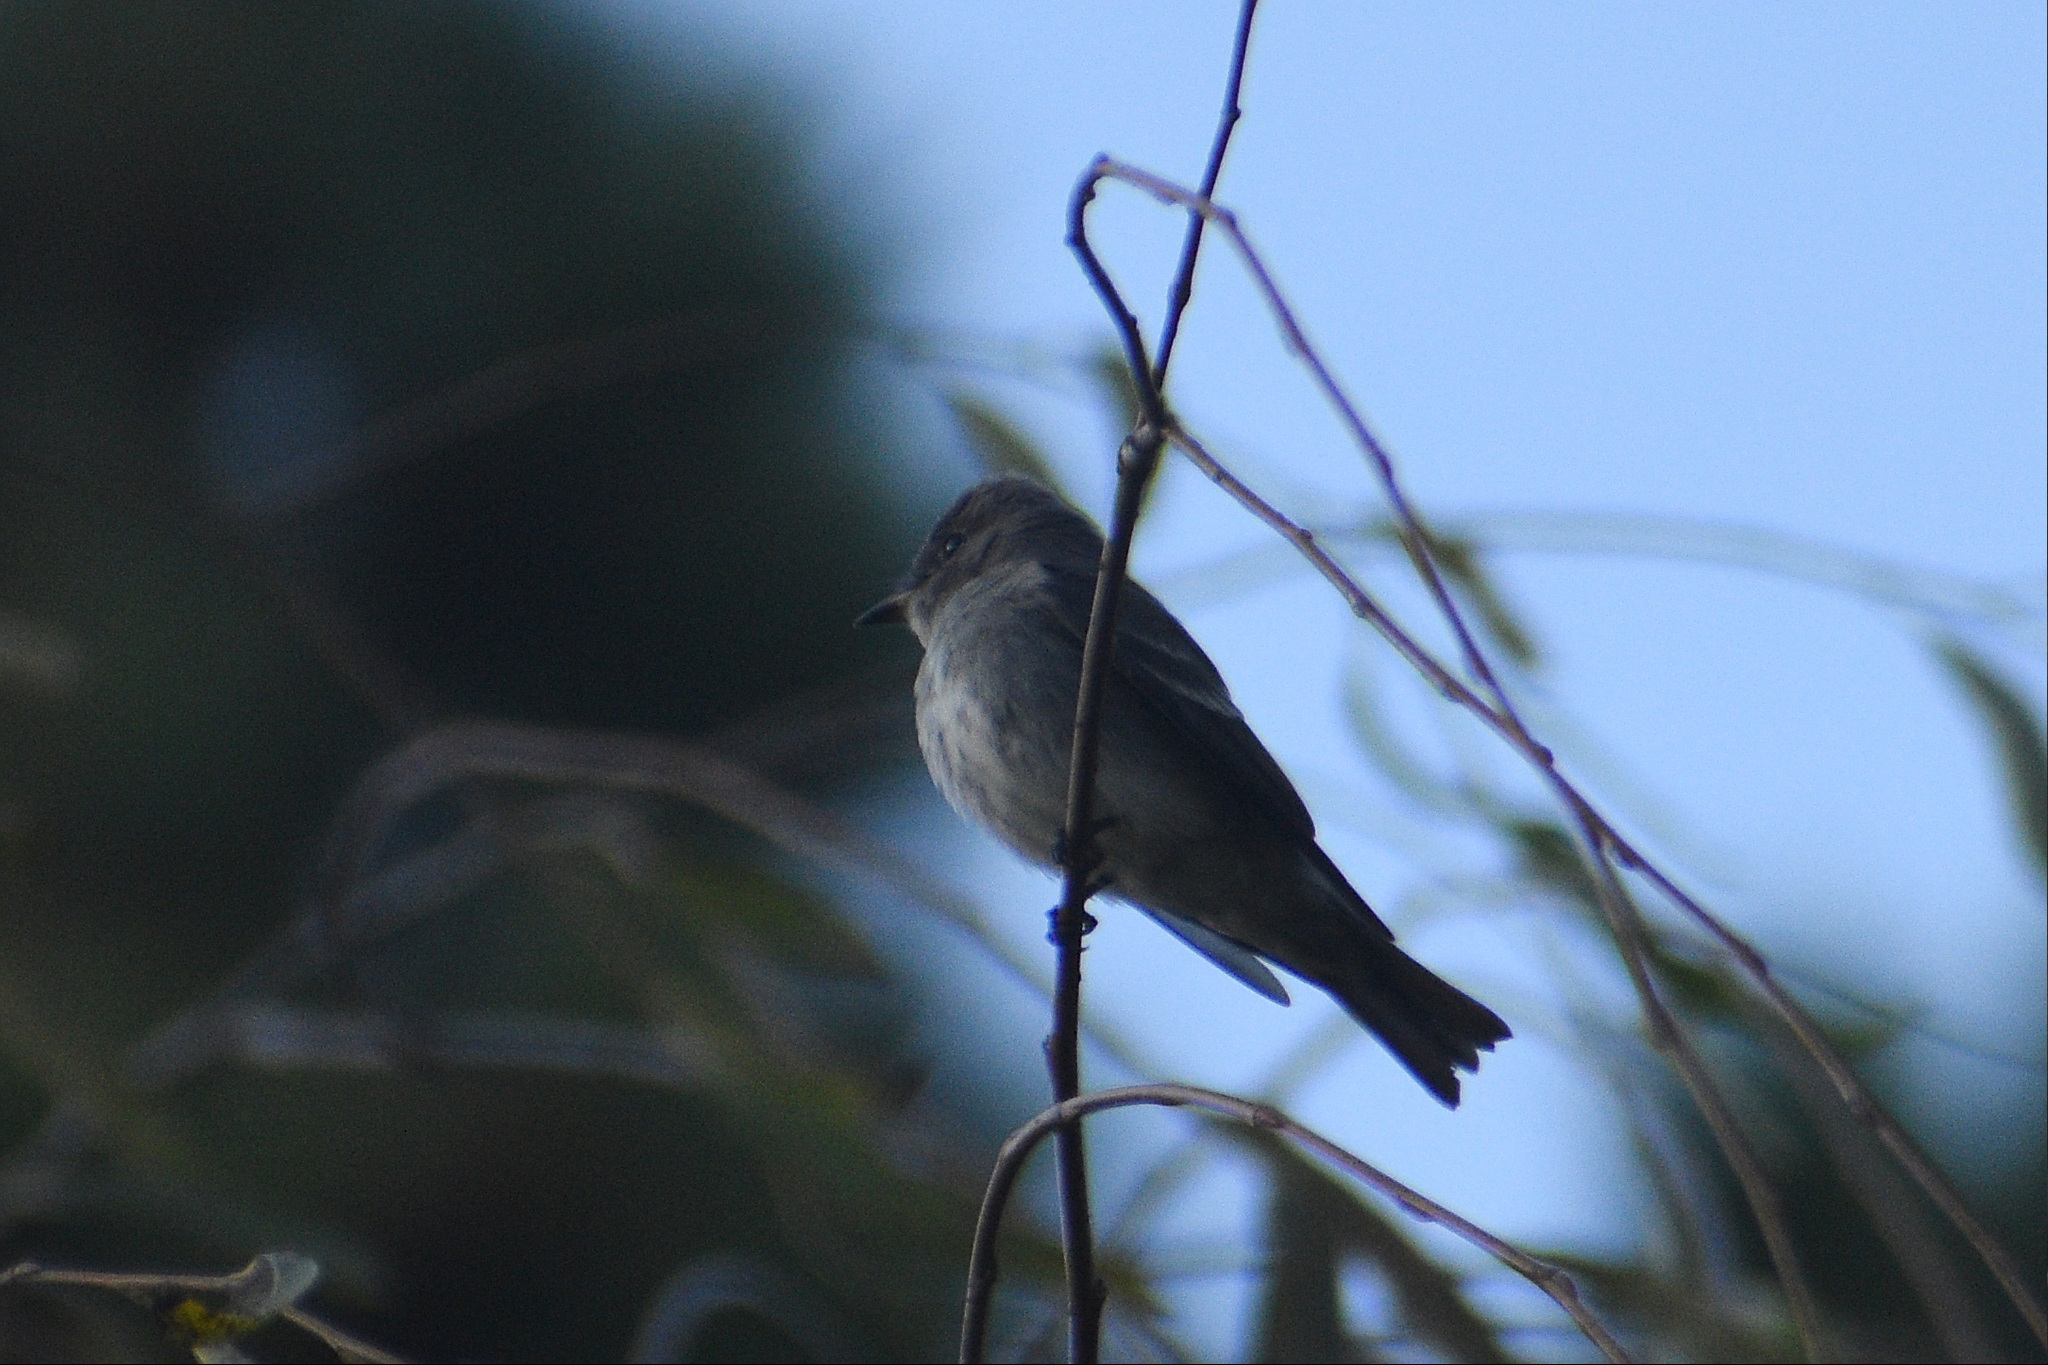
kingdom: Animalia
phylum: Chordata
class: Aves
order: Passeriformes
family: Tyrannidae
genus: Contopus
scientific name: Contopus sordidulus
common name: Western wood-pewee
